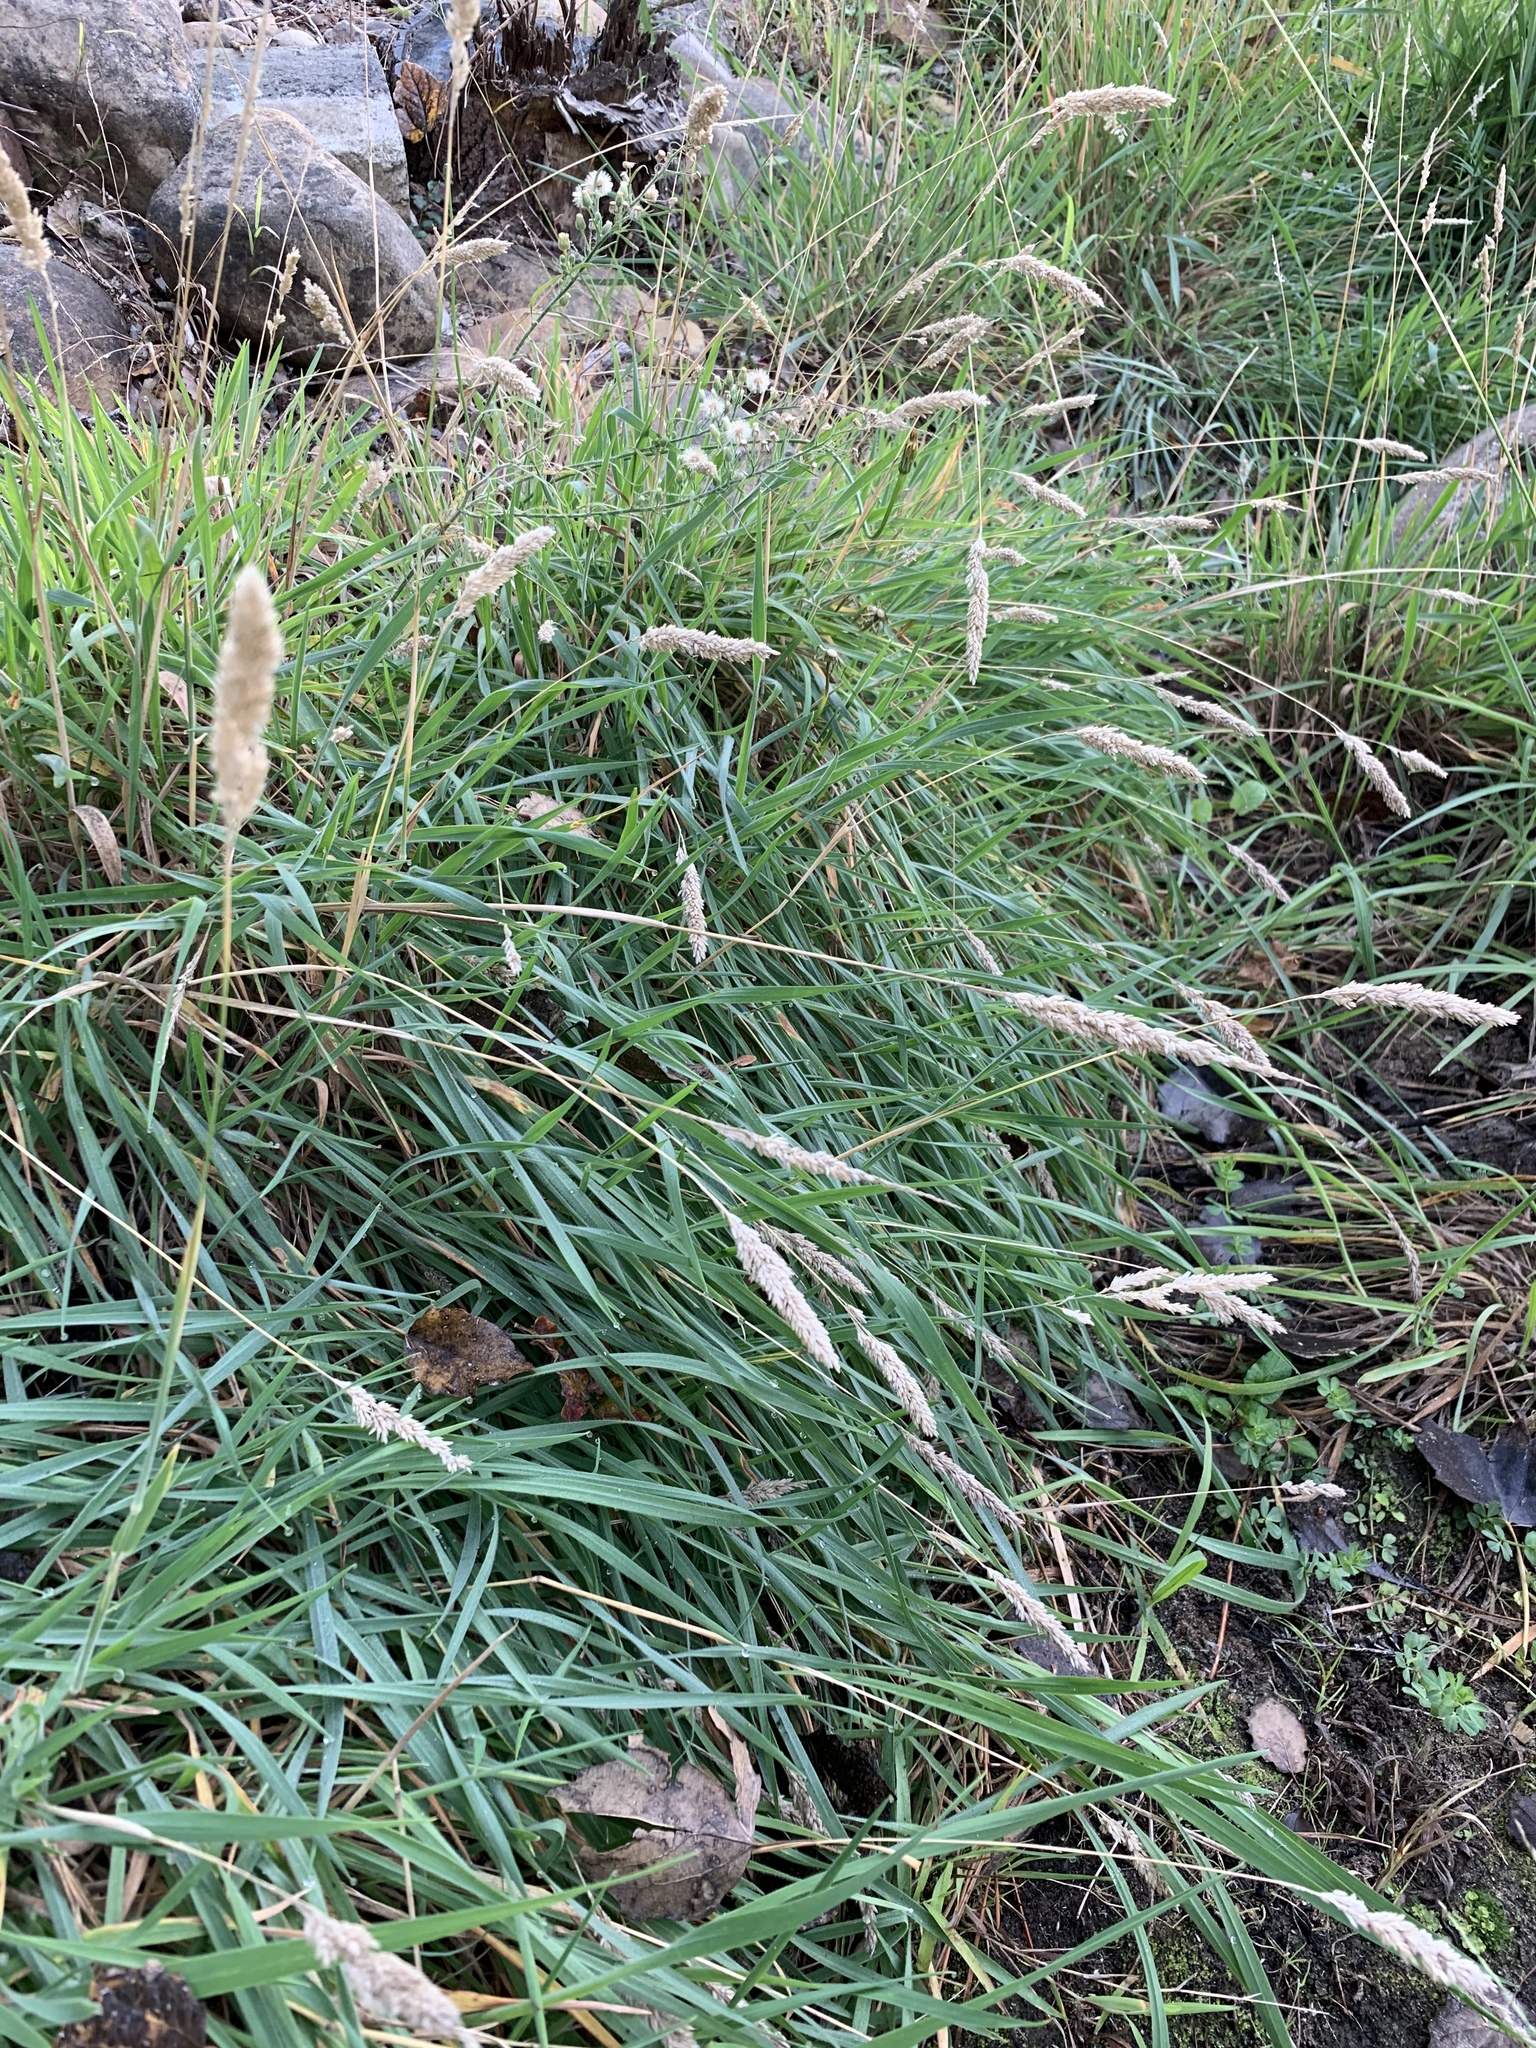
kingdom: Plantae
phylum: Tracheophyta
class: Liliopsida
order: Poales
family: Poaceae
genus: Holcus
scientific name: Holcus lanatus
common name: Yorkshire-fog
